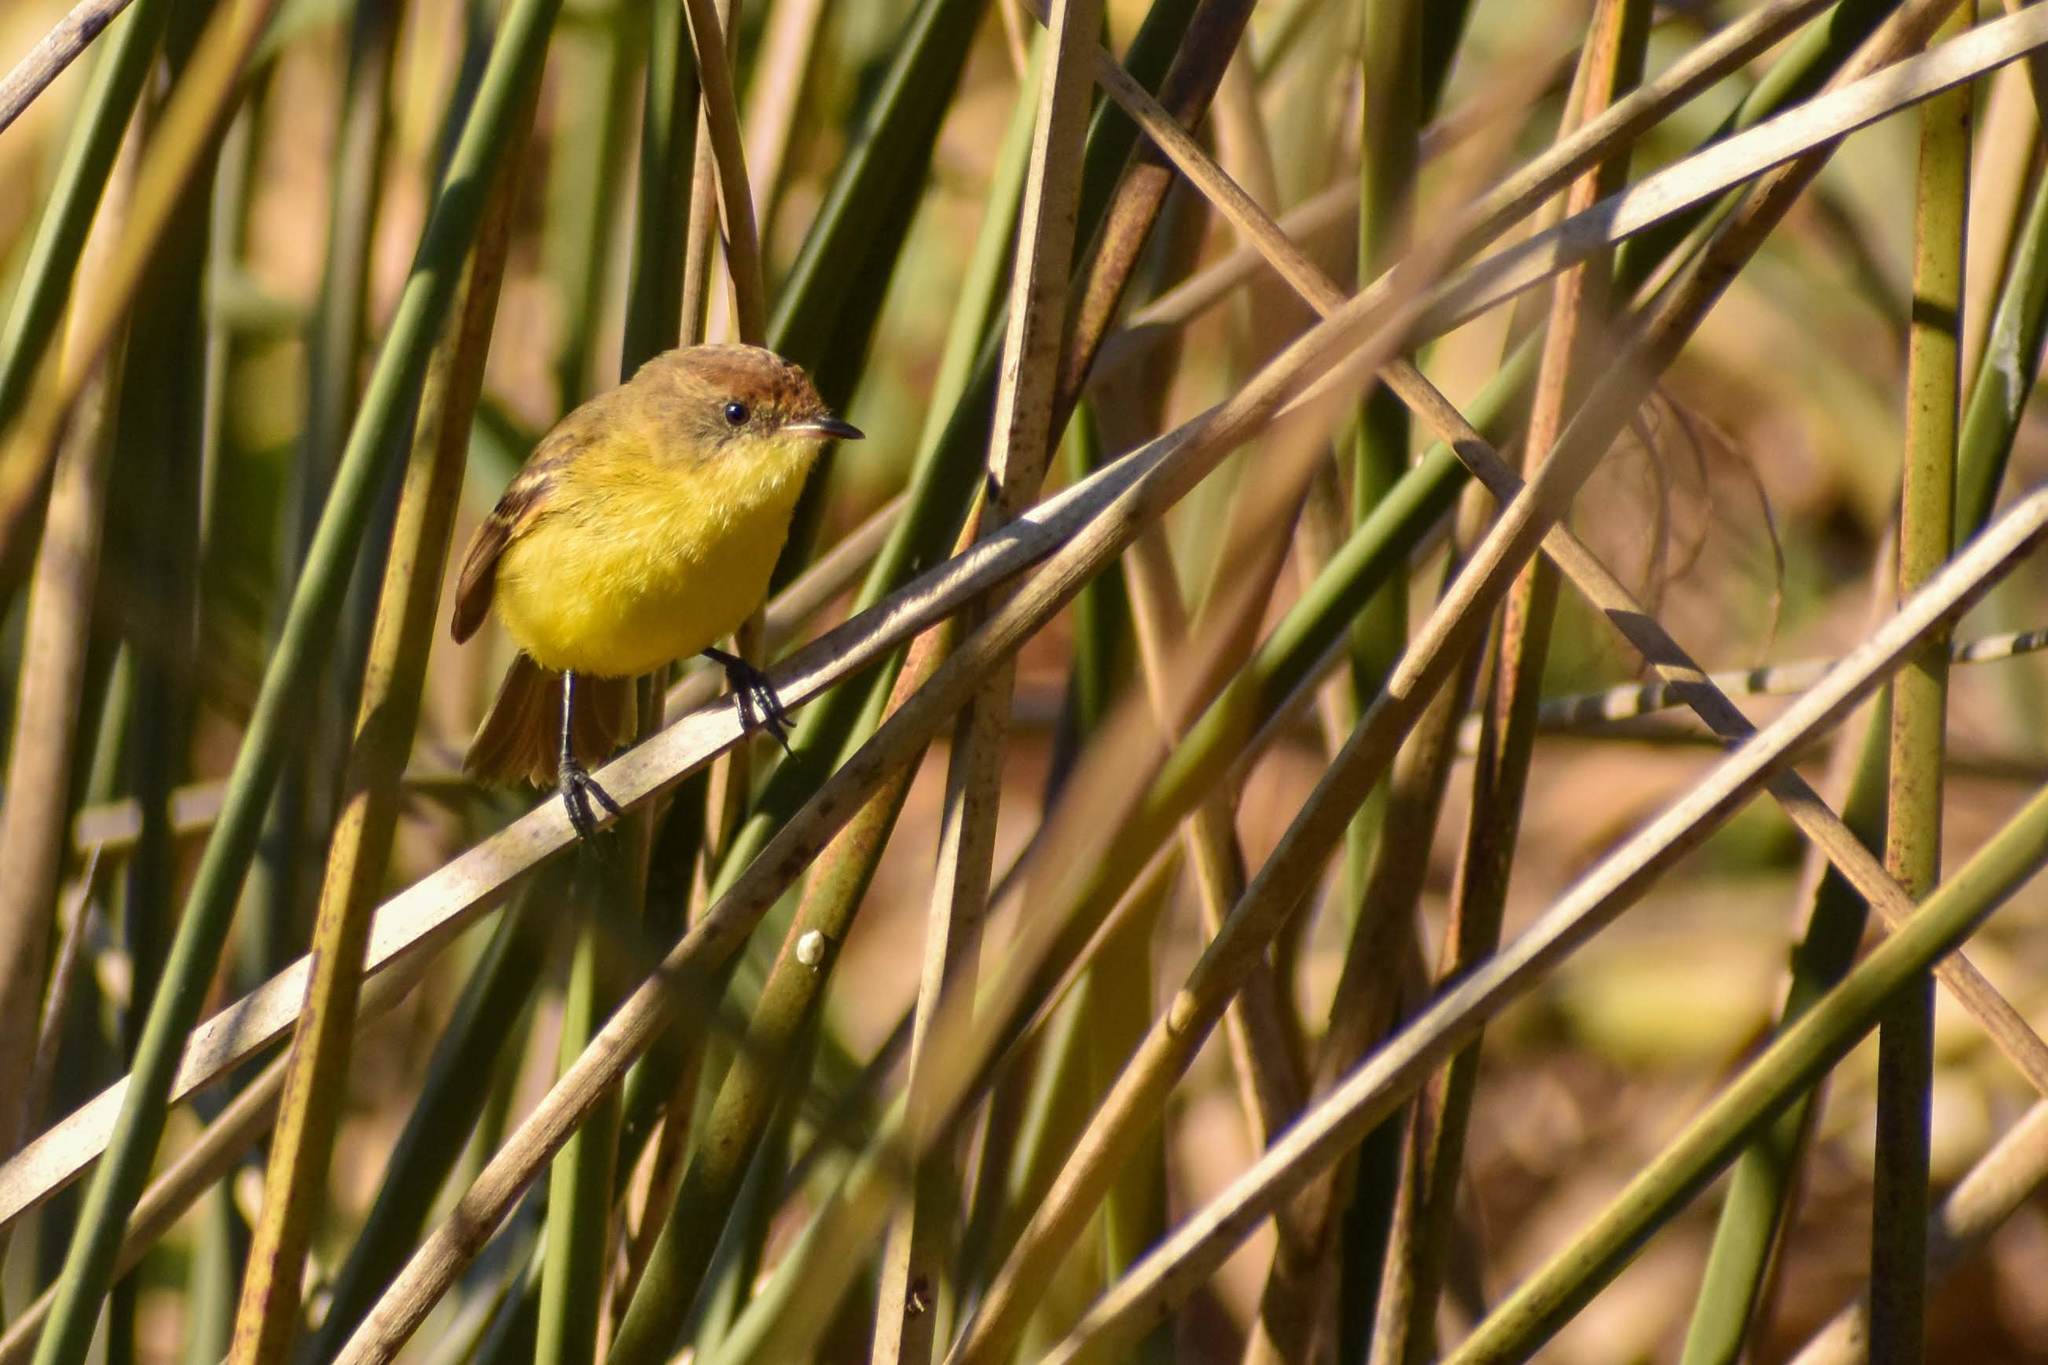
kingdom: Animalia
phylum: Chordata
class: Aves
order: Passeriformes
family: Tyrannidae
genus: Pseudocolopteryx
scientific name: Pseudocolopteryx flaviventris
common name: Warbling doradito
